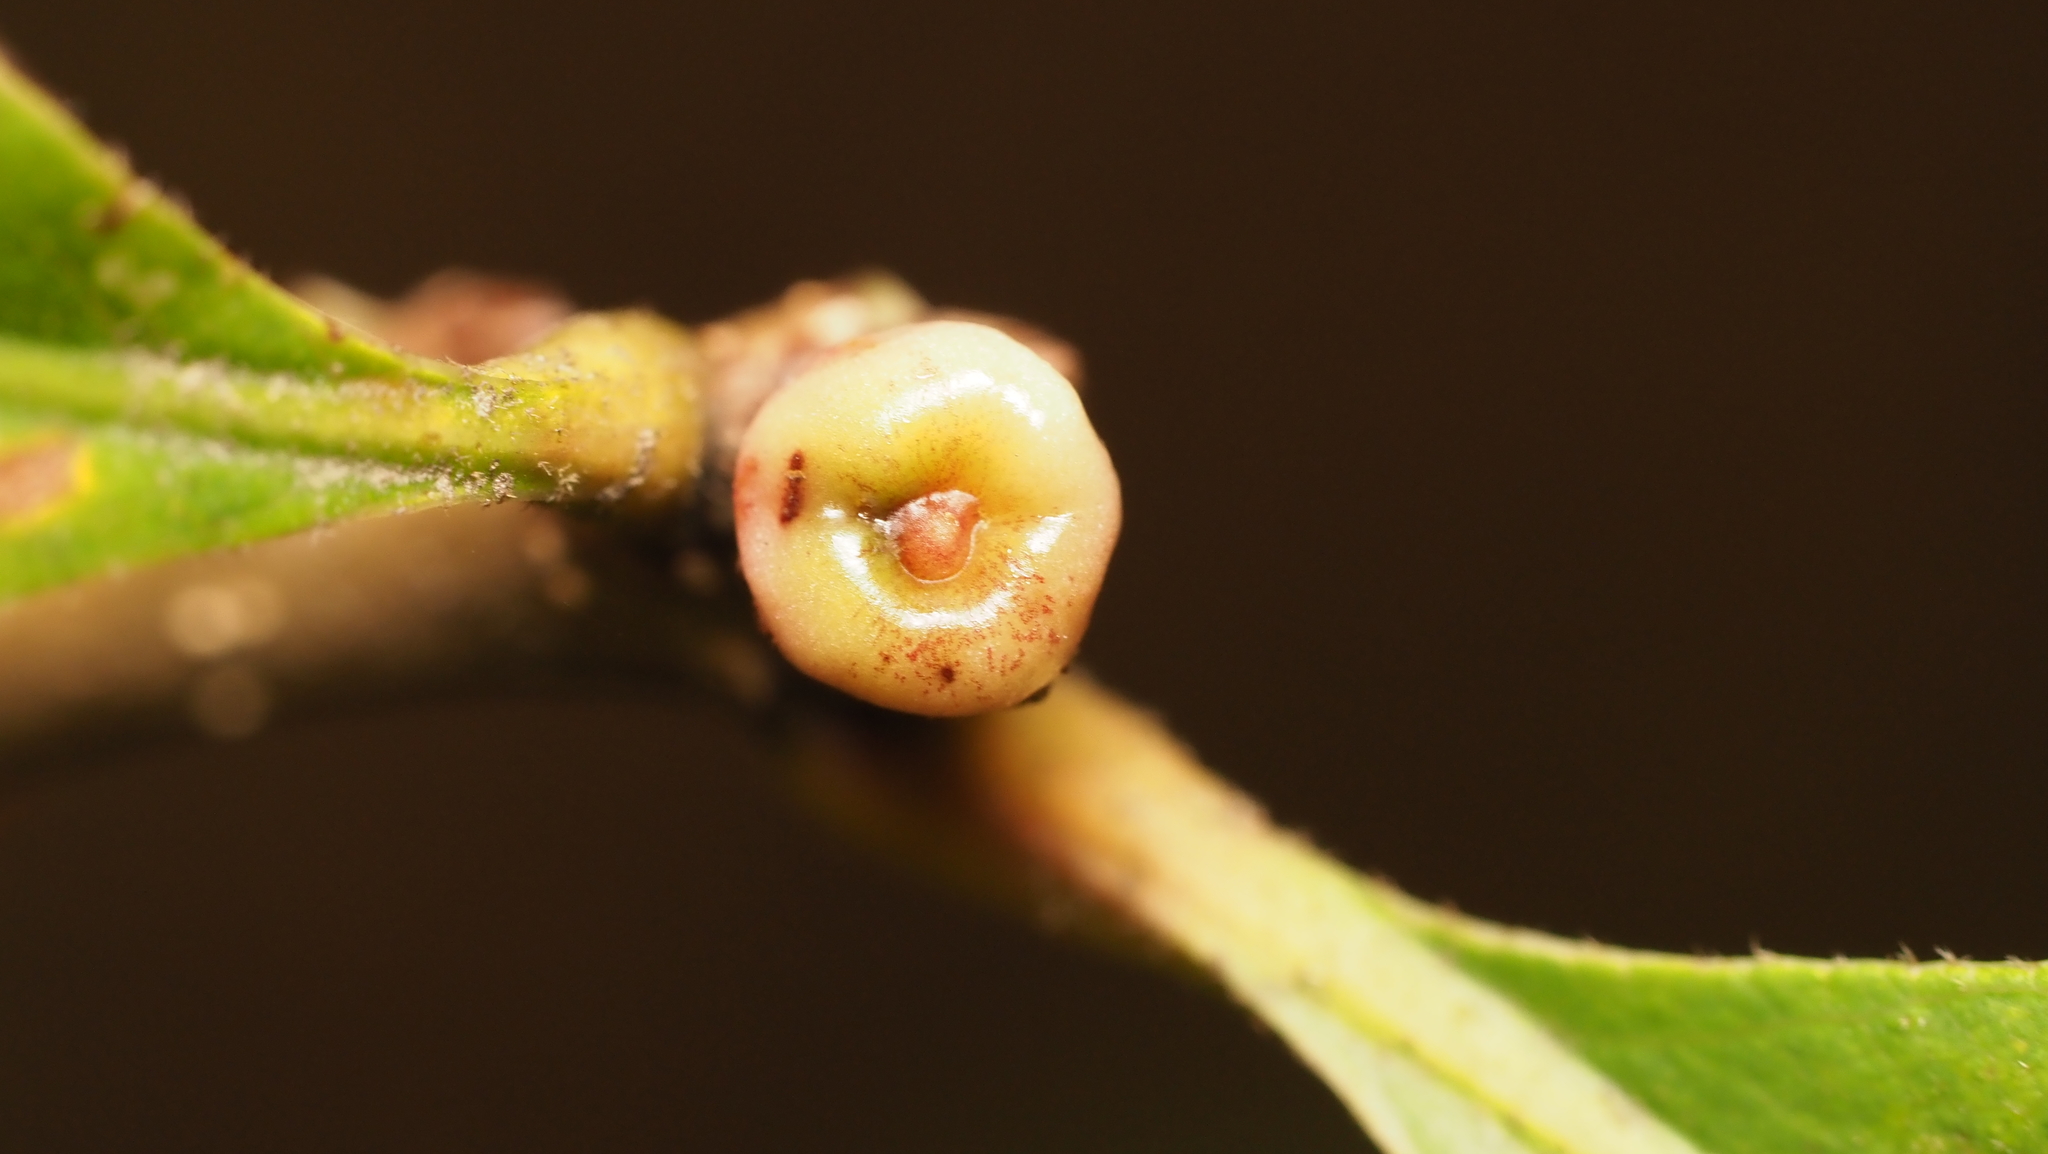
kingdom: Animalia
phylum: Arthropoda
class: Insecta
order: Hymenoptera
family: Cynipidae
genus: Andricus
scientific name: Andricus
